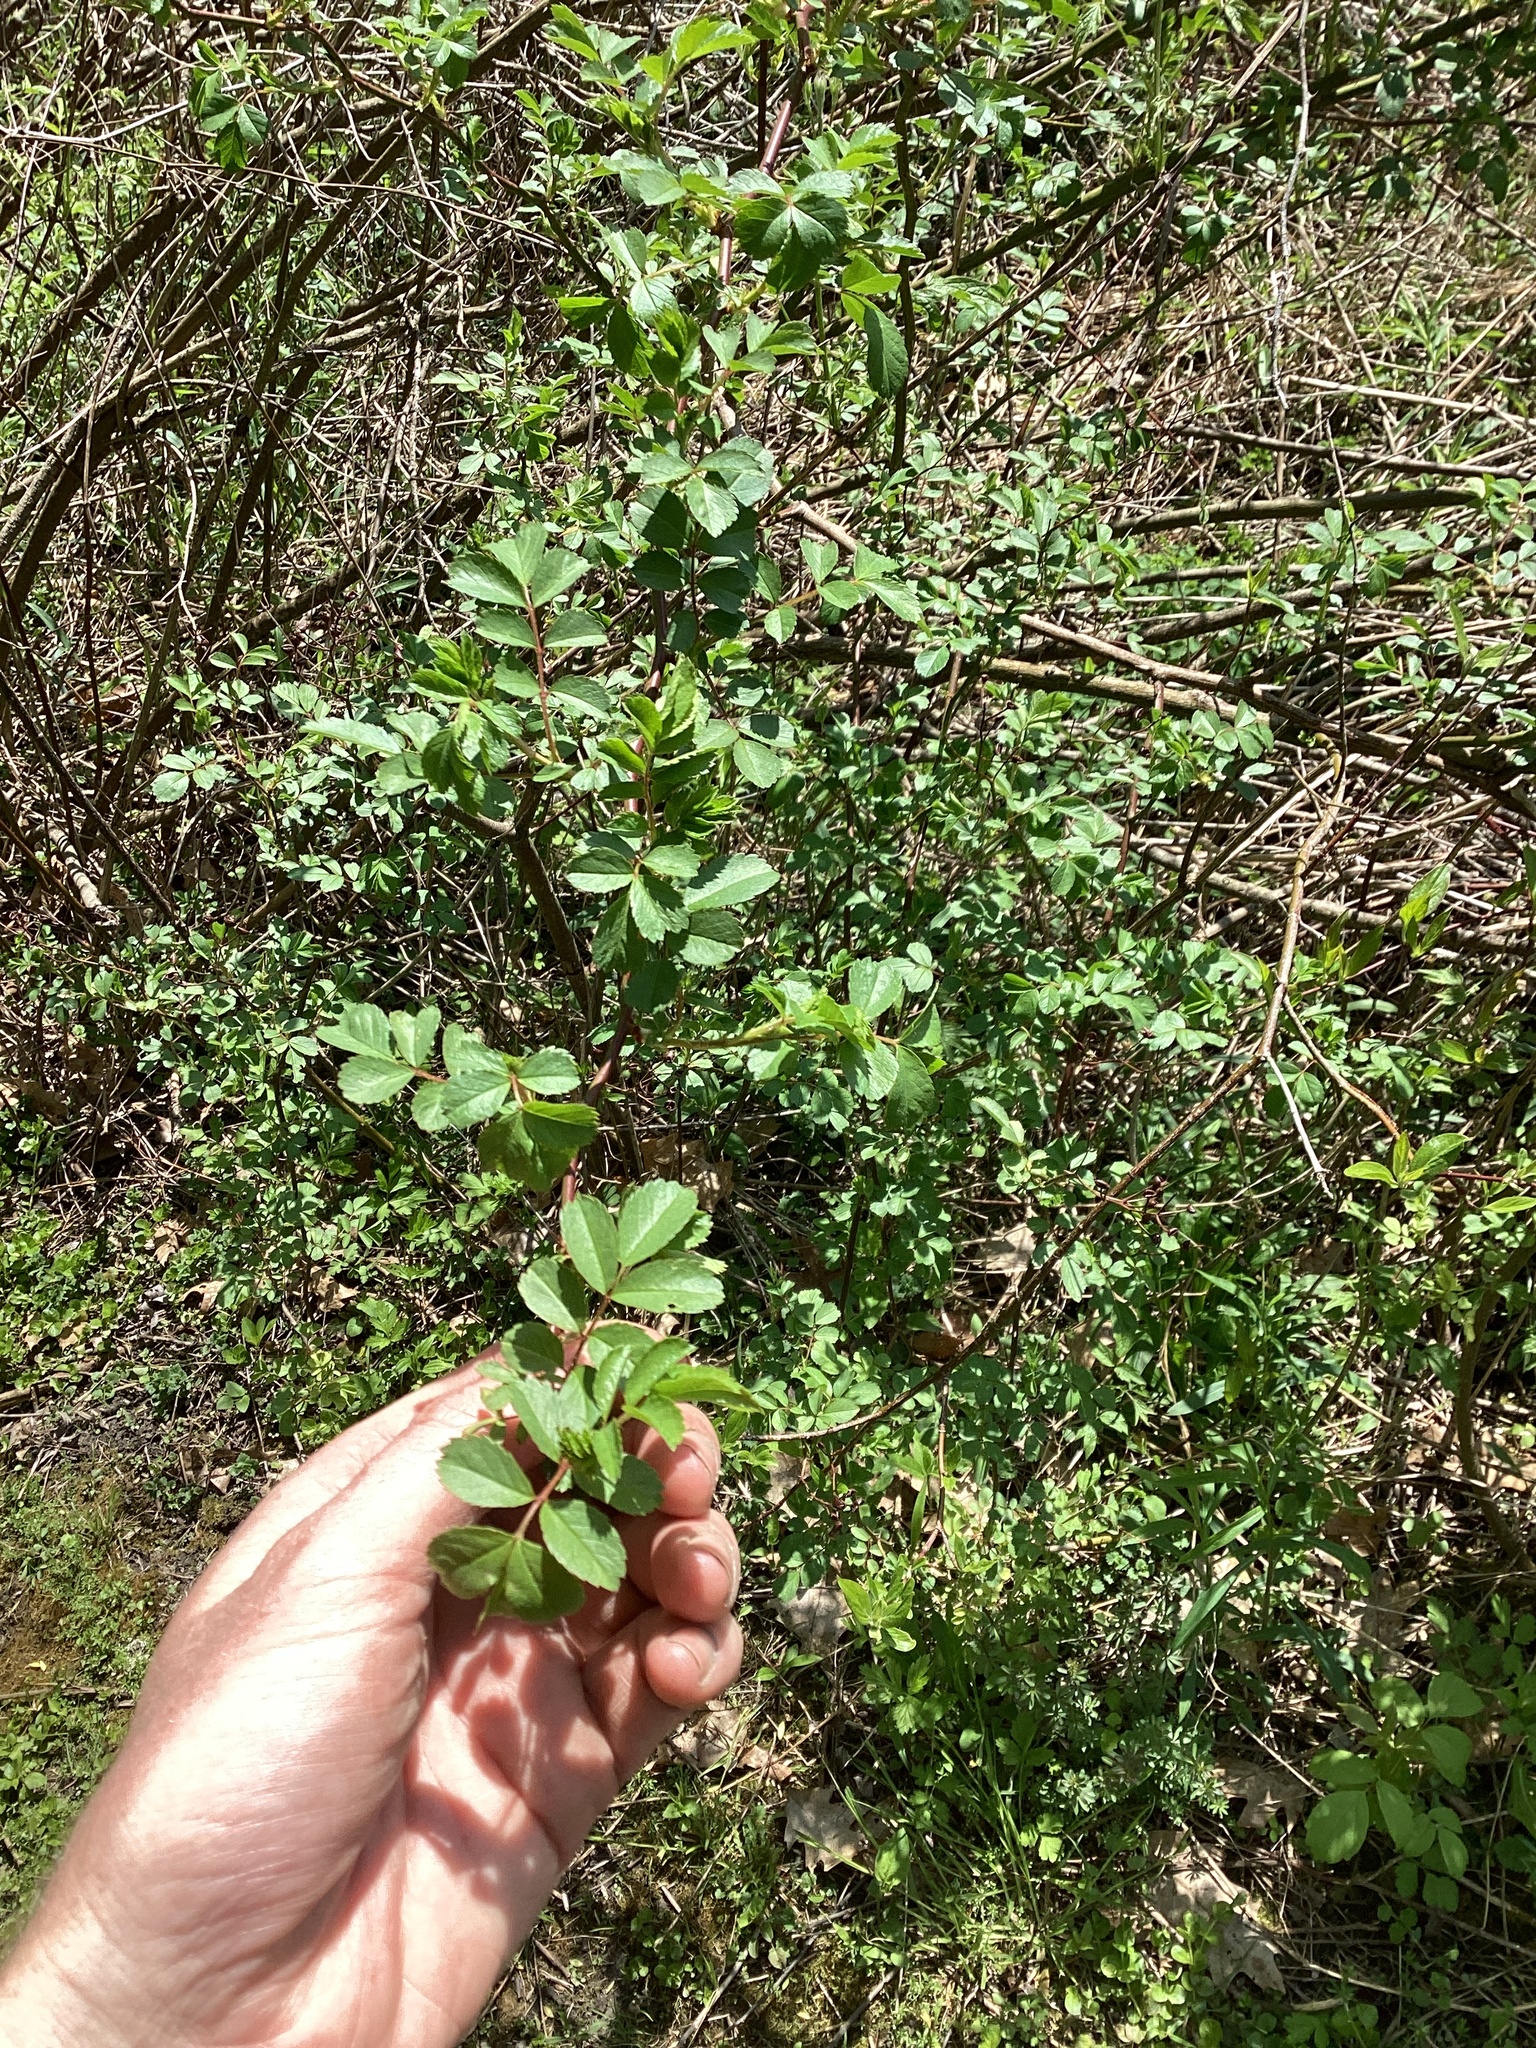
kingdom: Plantae
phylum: Tracheophyta
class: Magnoliopsida
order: Rosales
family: Rosaceae
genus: Rosa
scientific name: Rosa multiflora
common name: Multiflora rose
